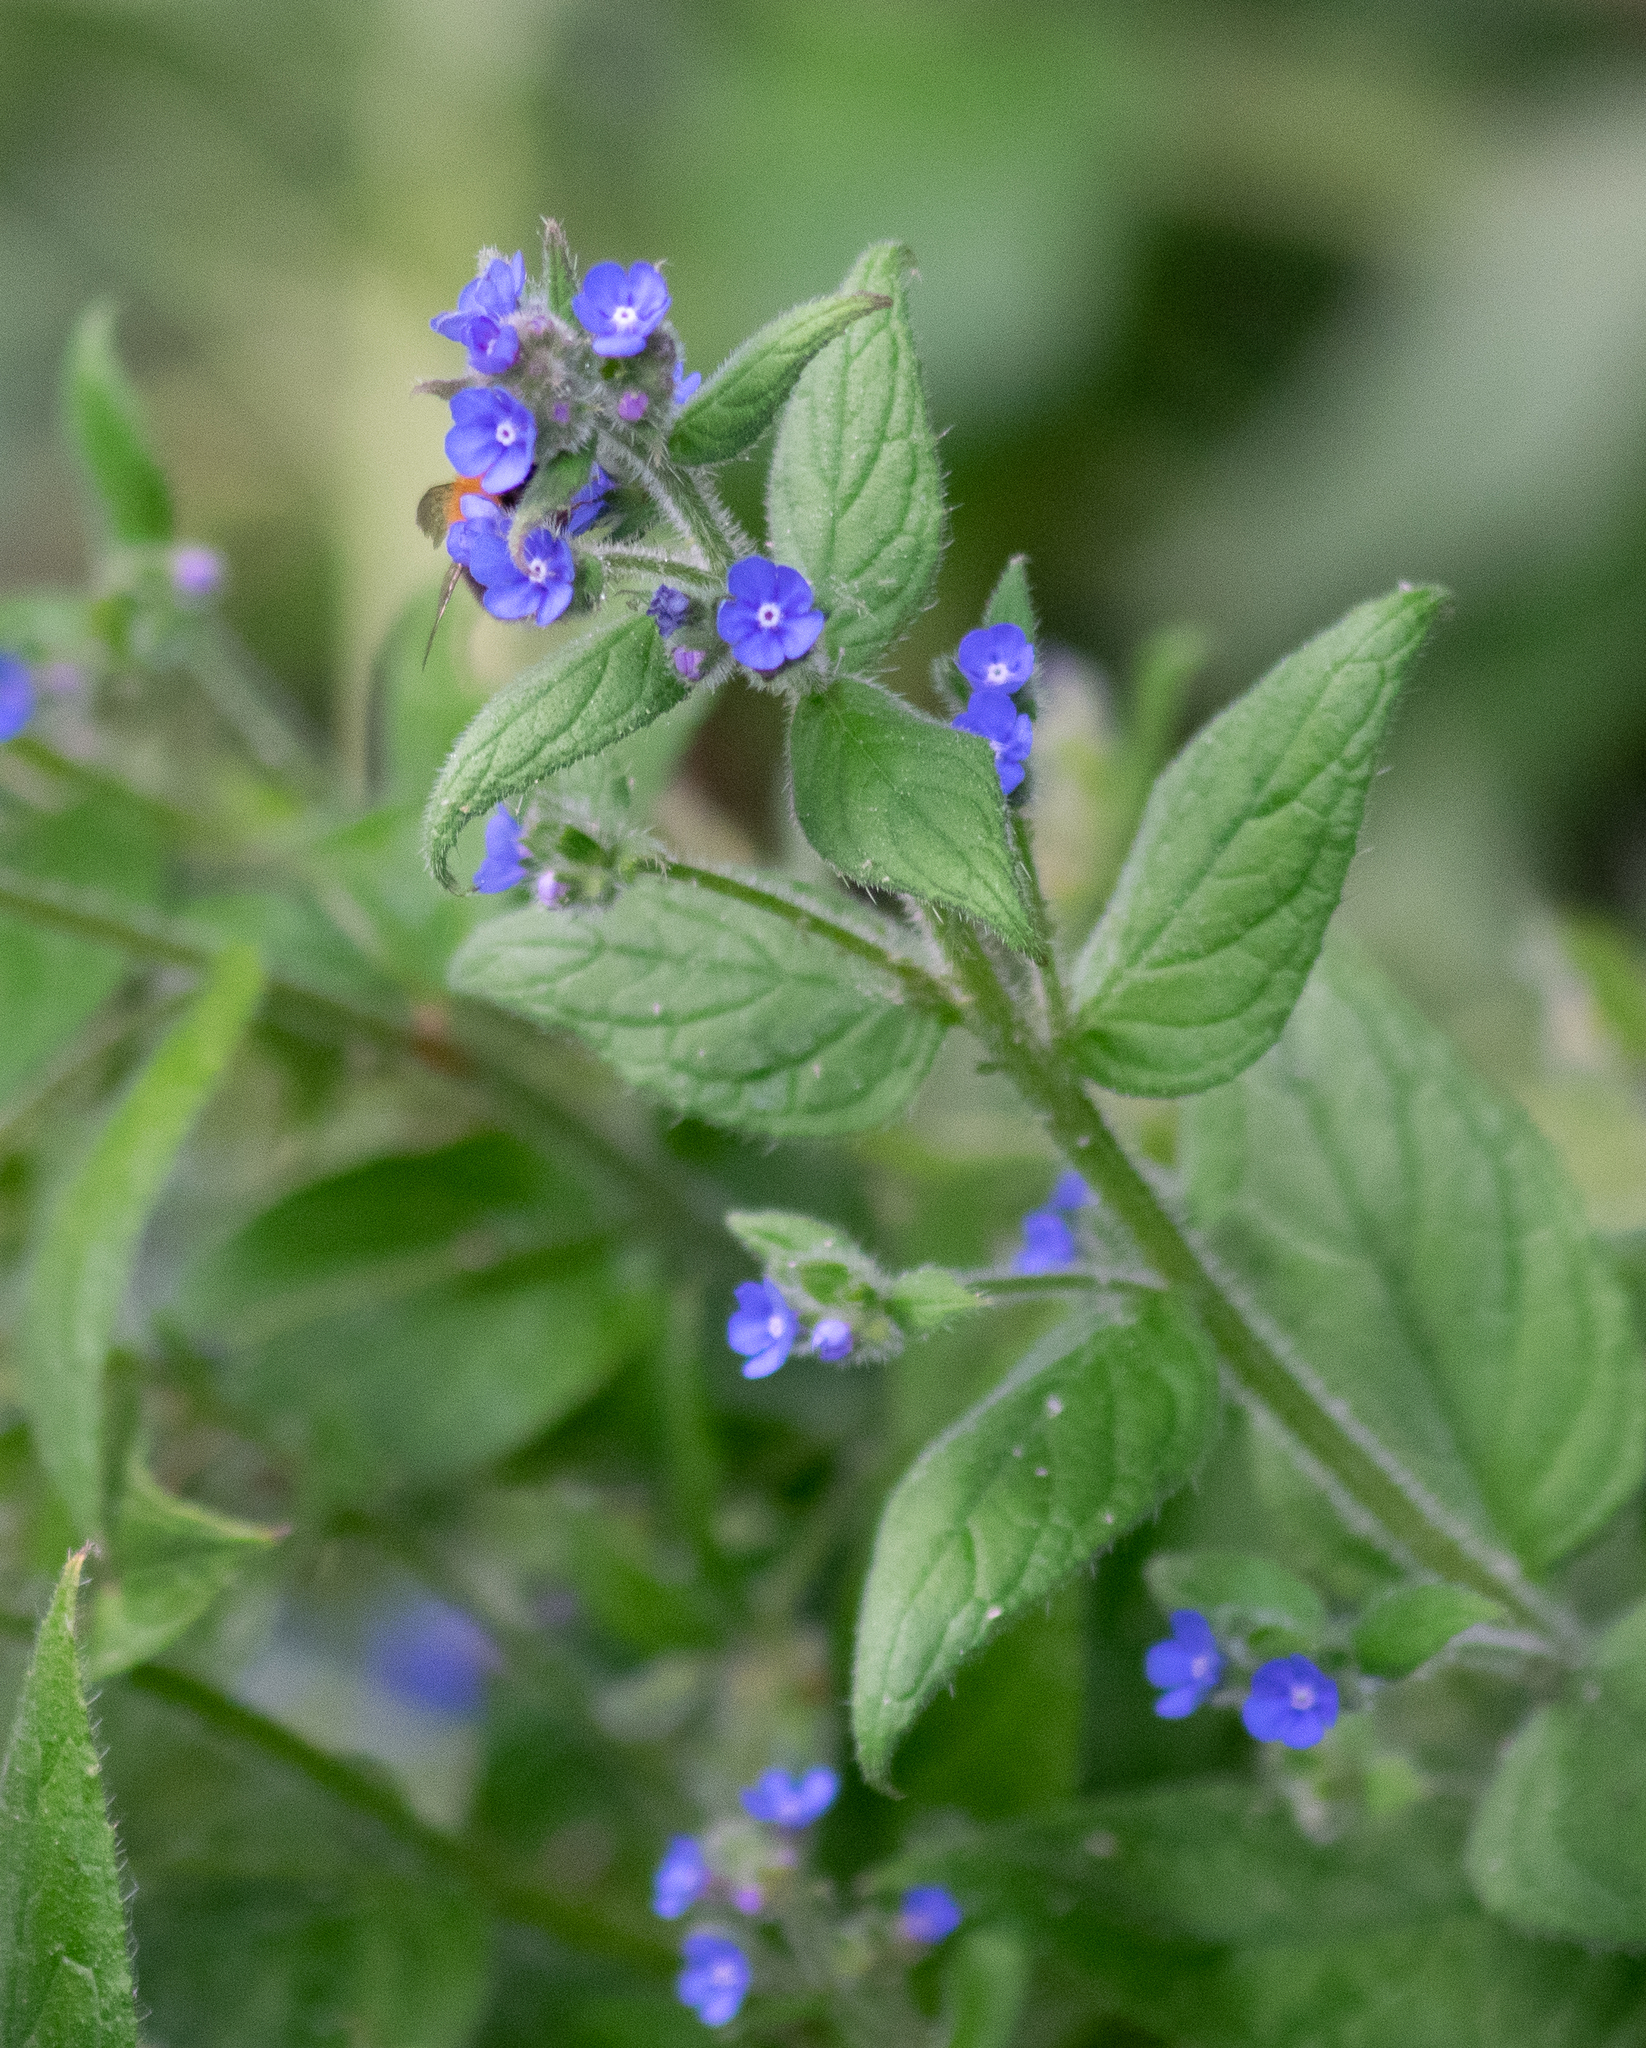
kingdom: Plantae
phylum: Tracheophyta
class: Magnoliopsida
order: Boraginales
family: Boraginaceae
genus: Pentaglottis
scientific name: Pentaglottis sempervirens
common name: Green alkanet
